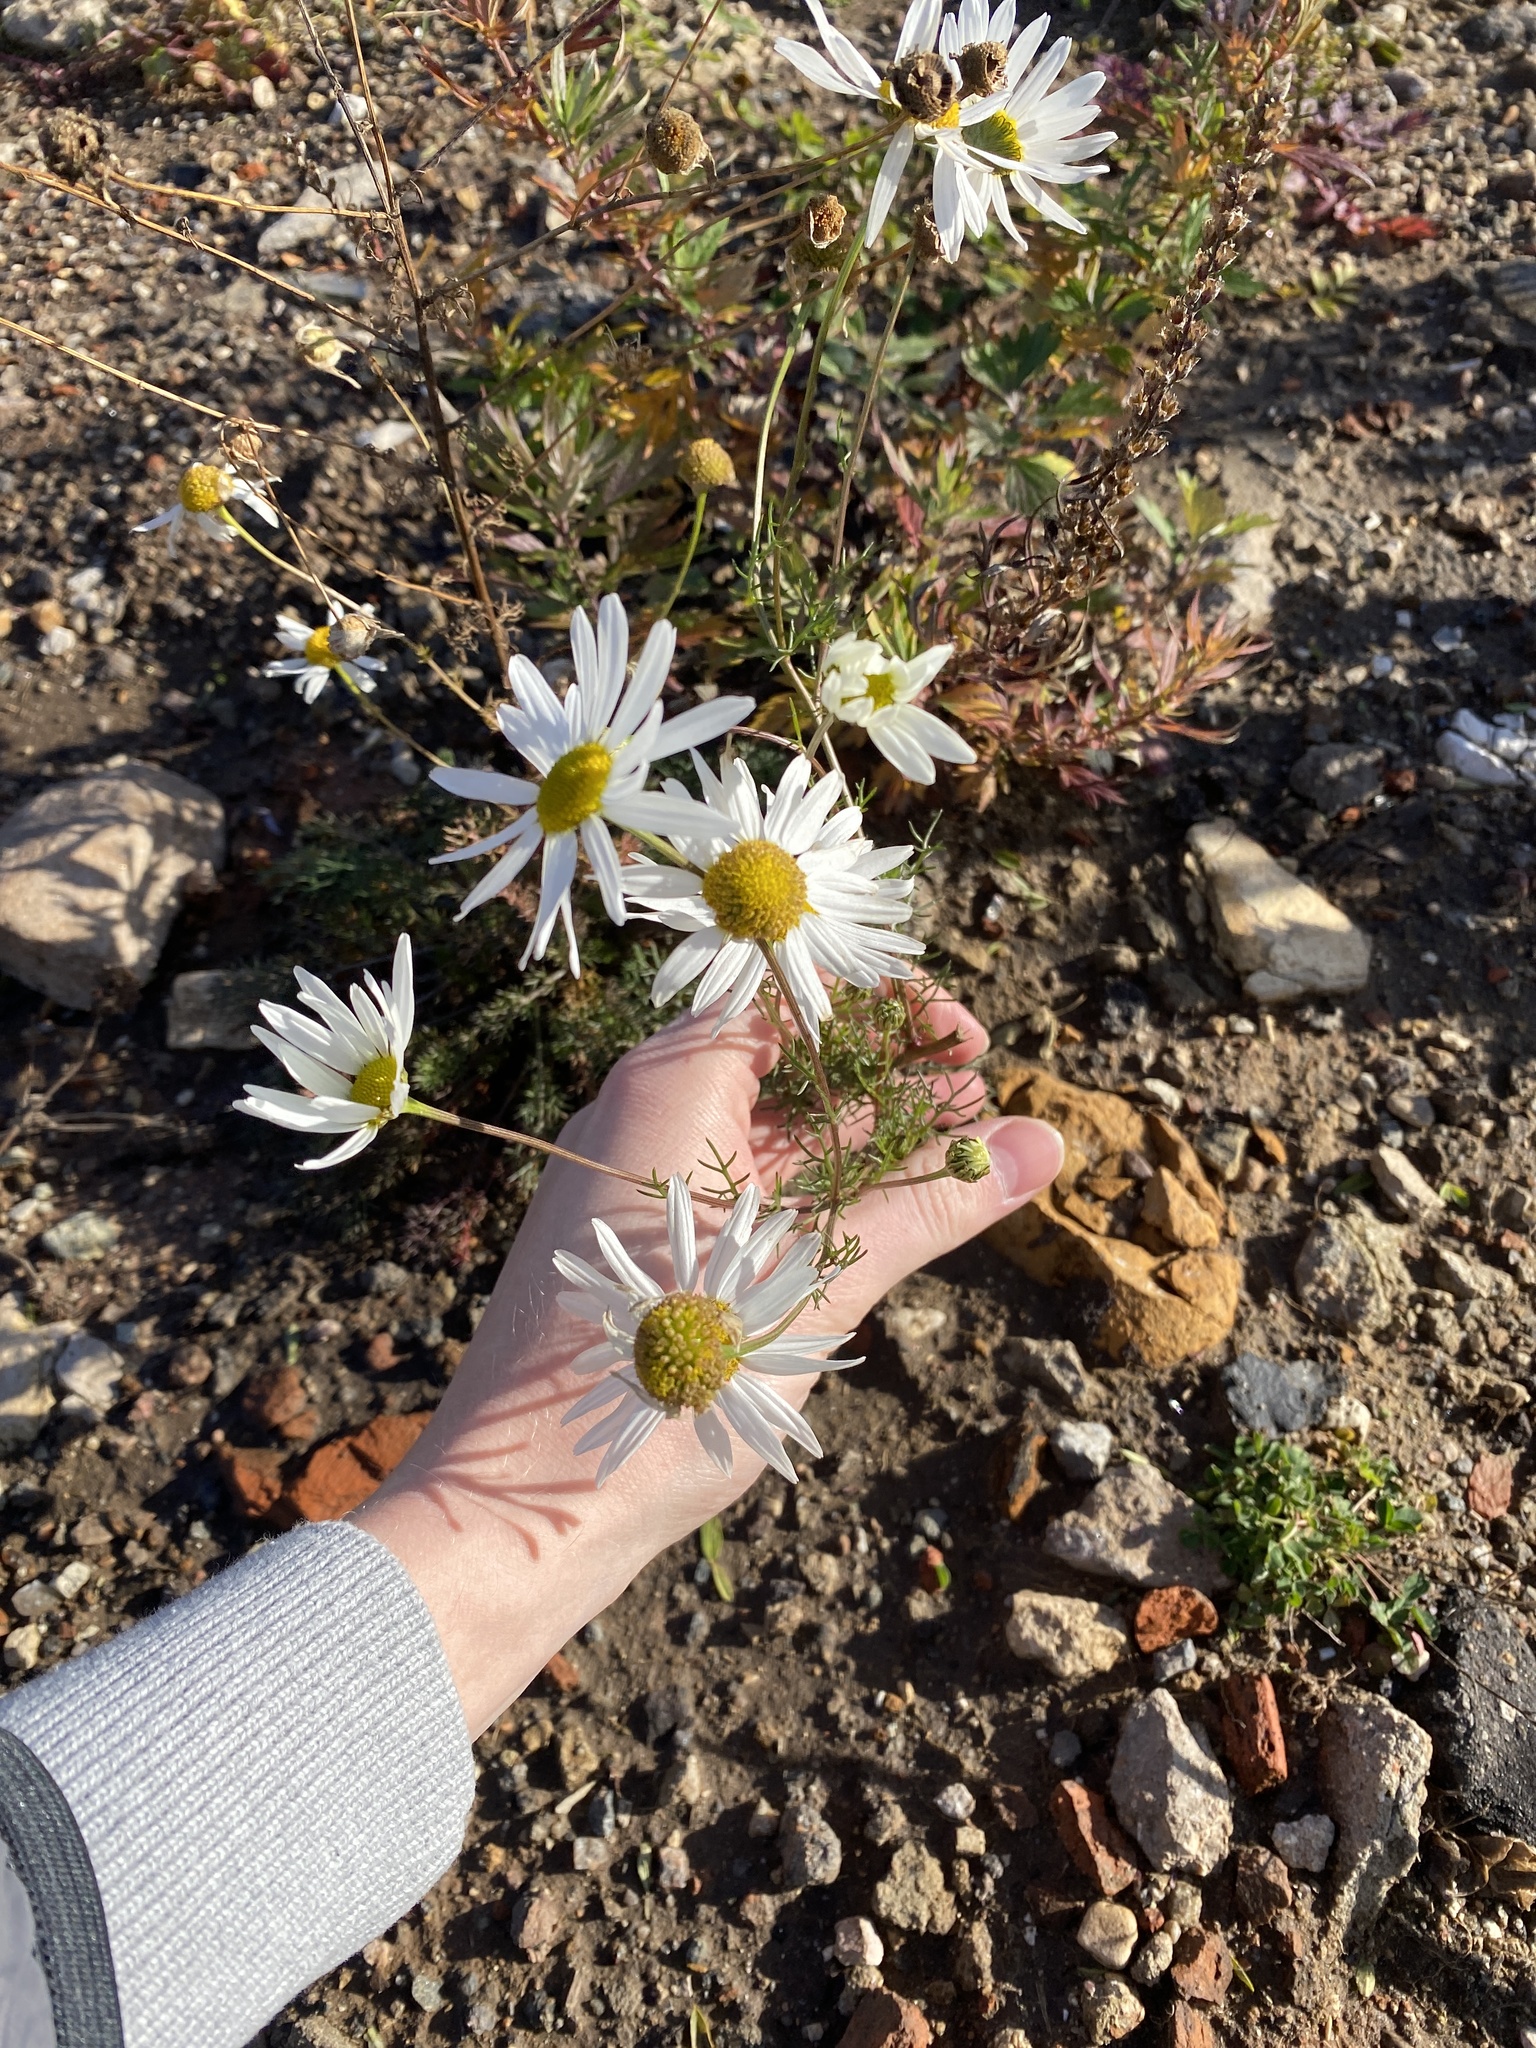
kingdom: Plantae
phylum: Tracheophyta
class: Magnoliopsida
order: Asterales
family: Asteraceae
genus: Tripleurospermum
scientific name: Tripleurospermum inodorum
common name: Scentless mayweed
